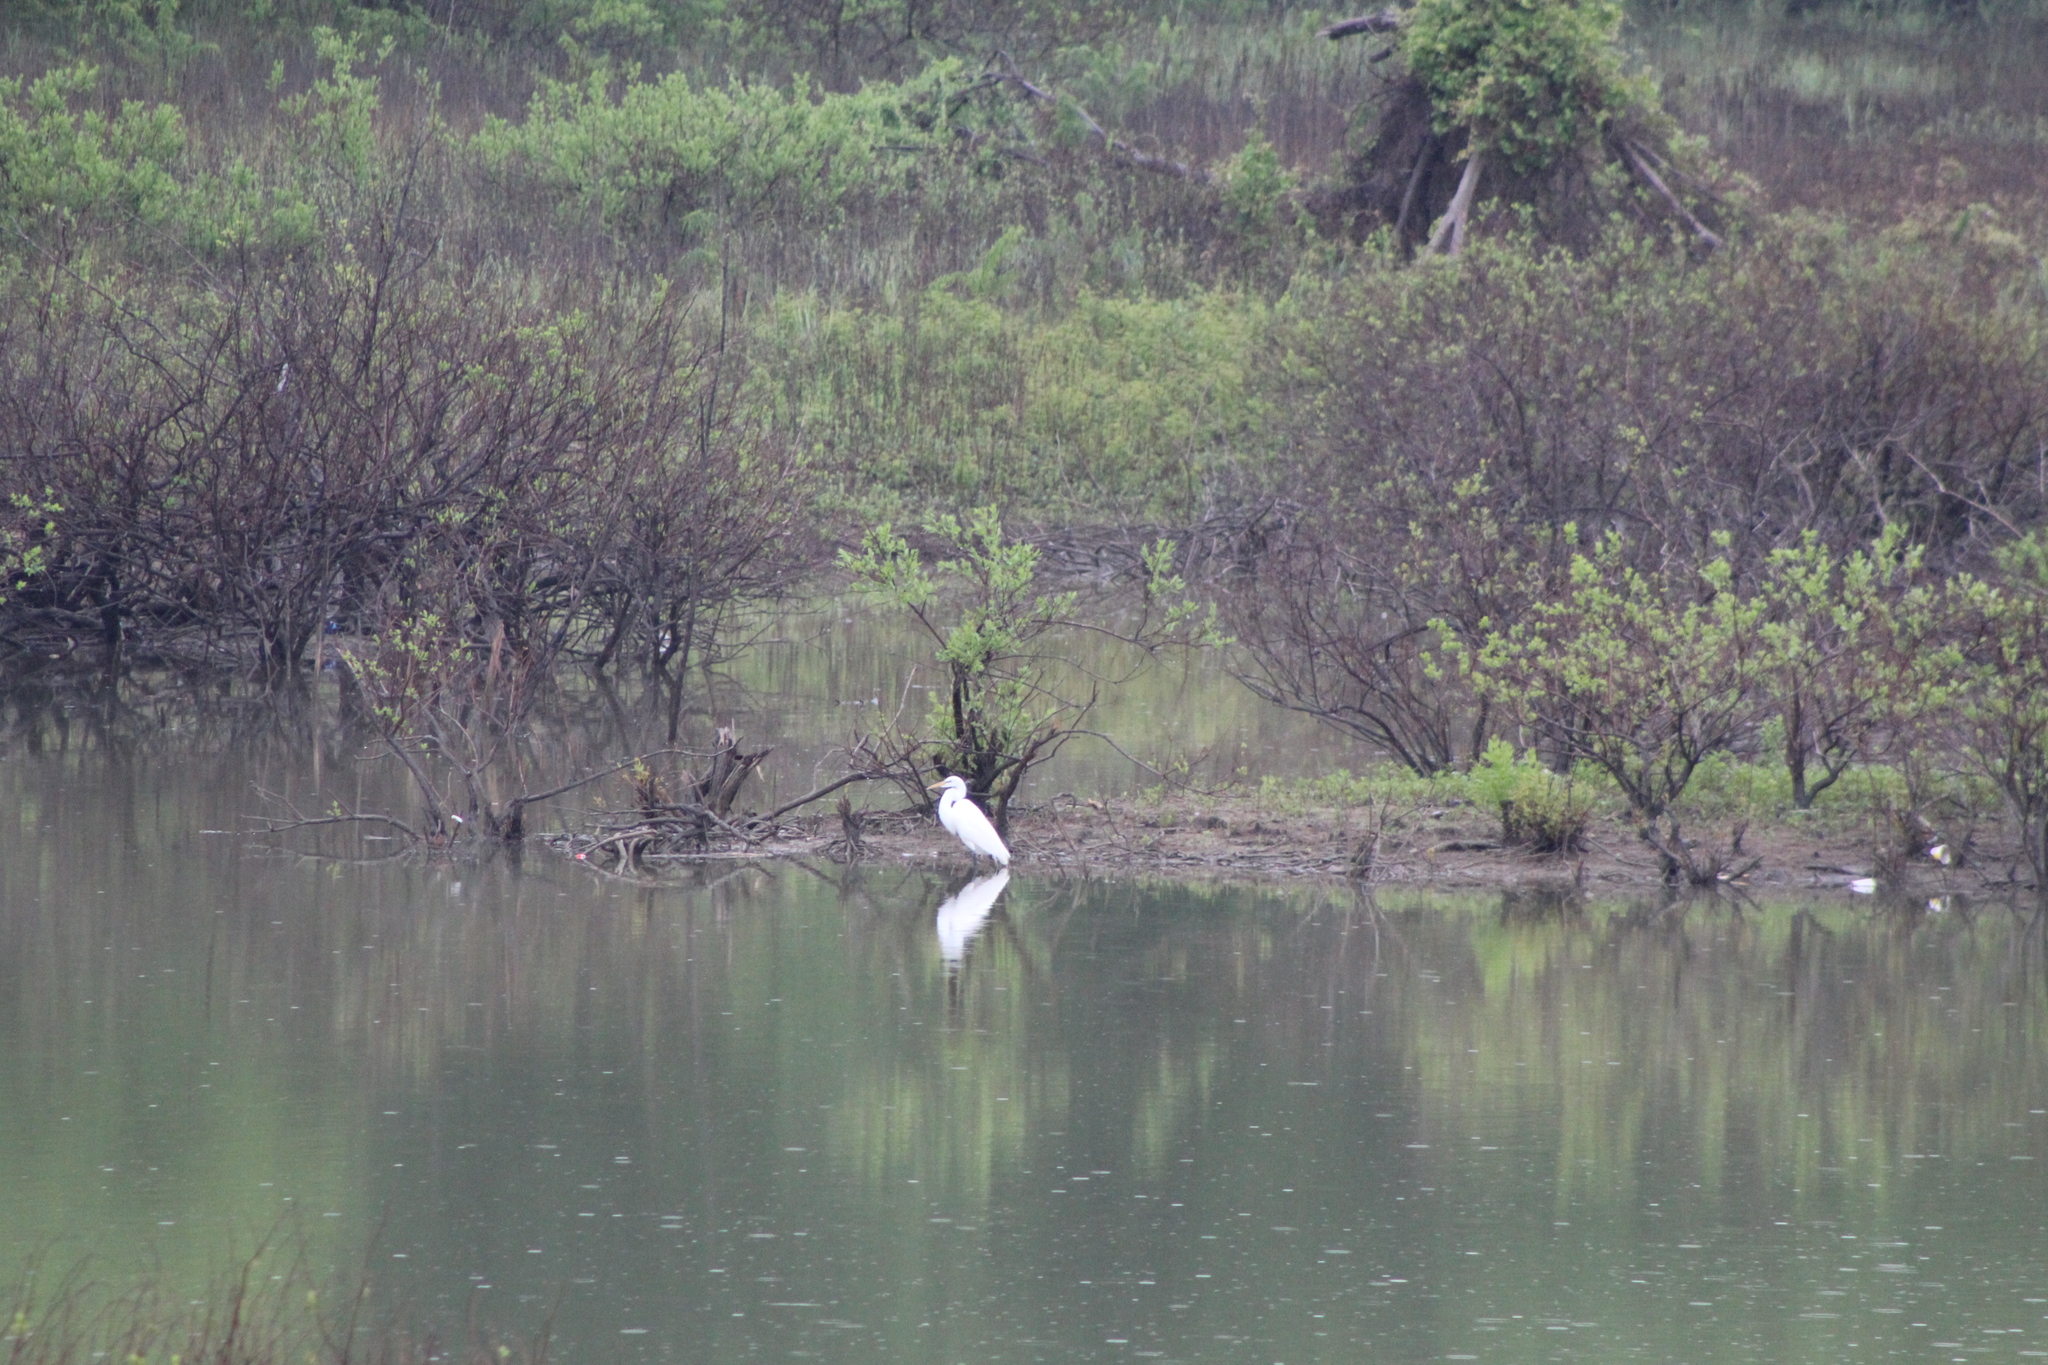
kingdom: Animalia
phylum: Chordata
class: Aves
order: Pelecaniformes
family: Ardeidae
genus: Ardea
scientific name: Ardea alba
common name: Great egret
